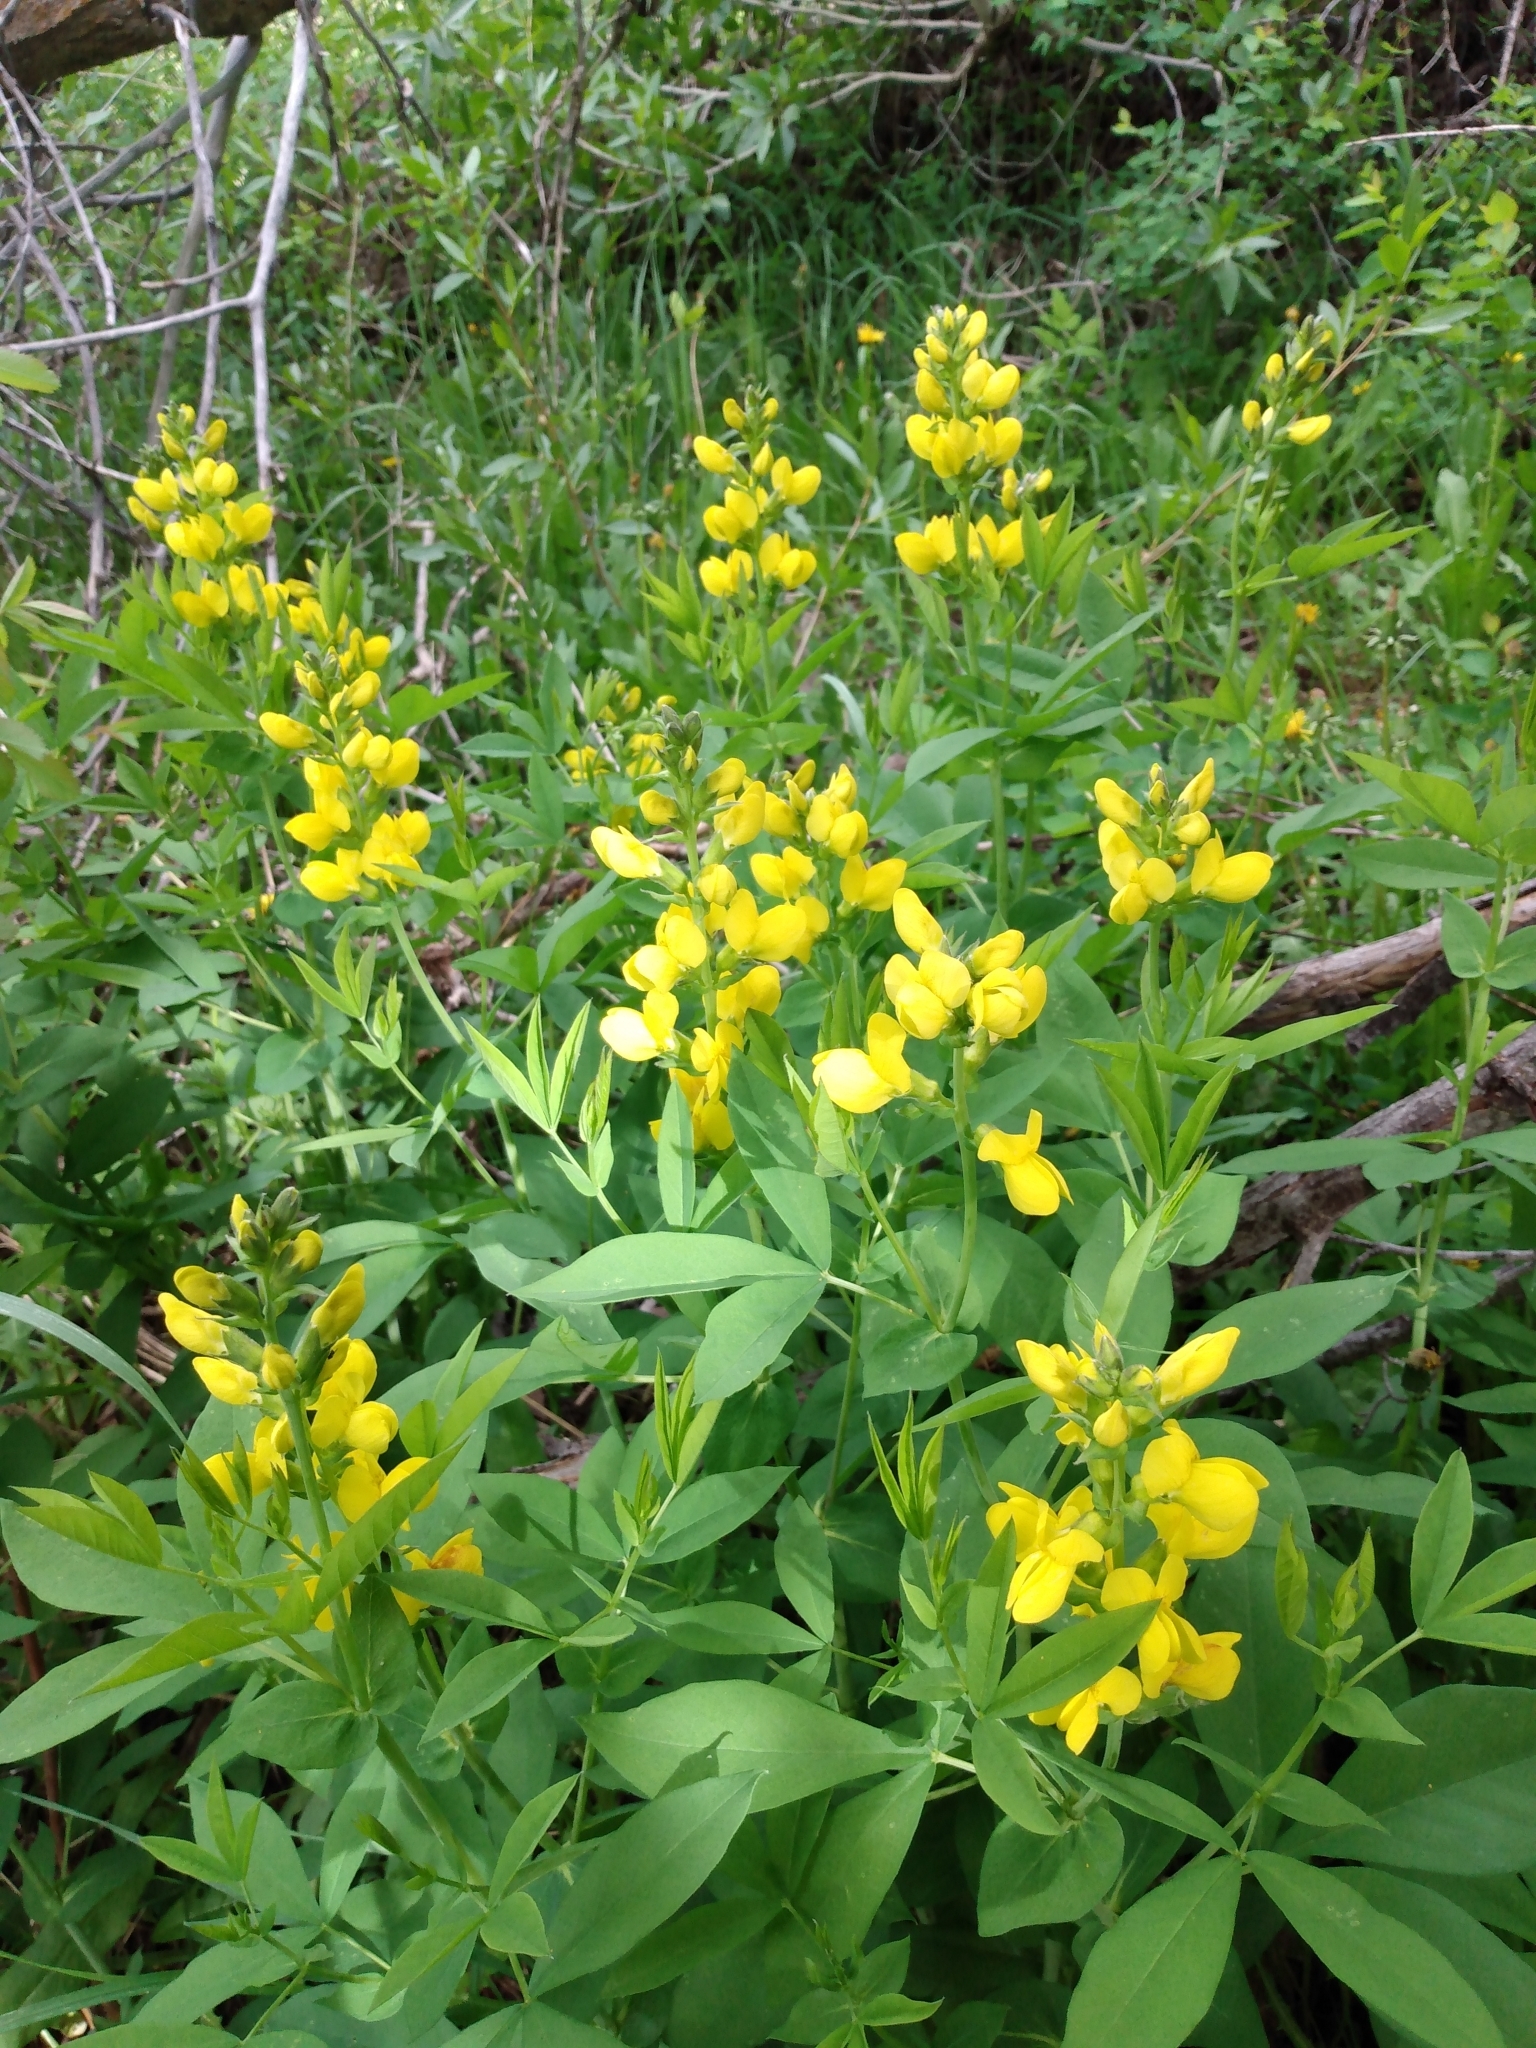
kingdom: Plantae
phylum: Tracheophyta
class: Magnoliopsida
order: Fabales
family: Fabaceae
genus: Thermopsis
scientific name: Thermopsis montana
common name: False lupin
